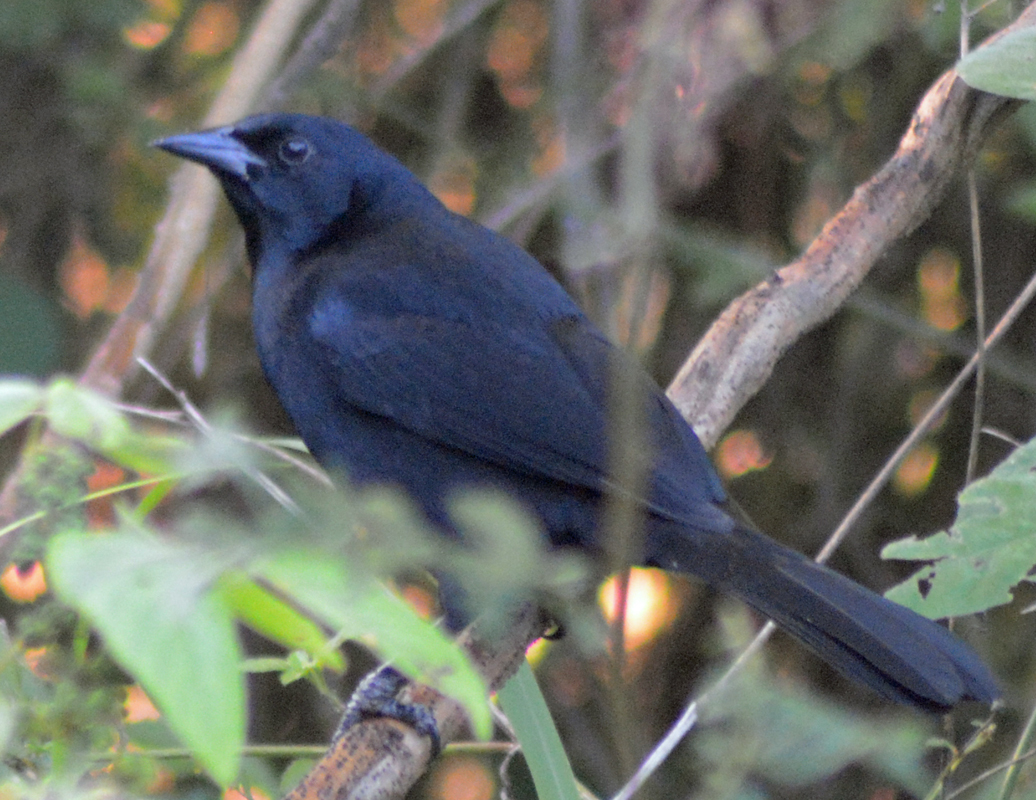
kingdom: Animalia
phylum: Chordata
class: Aves
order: Passeriformes
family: Icteridae
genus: Dives
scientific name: Dives dives
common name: Melodious blackbird
